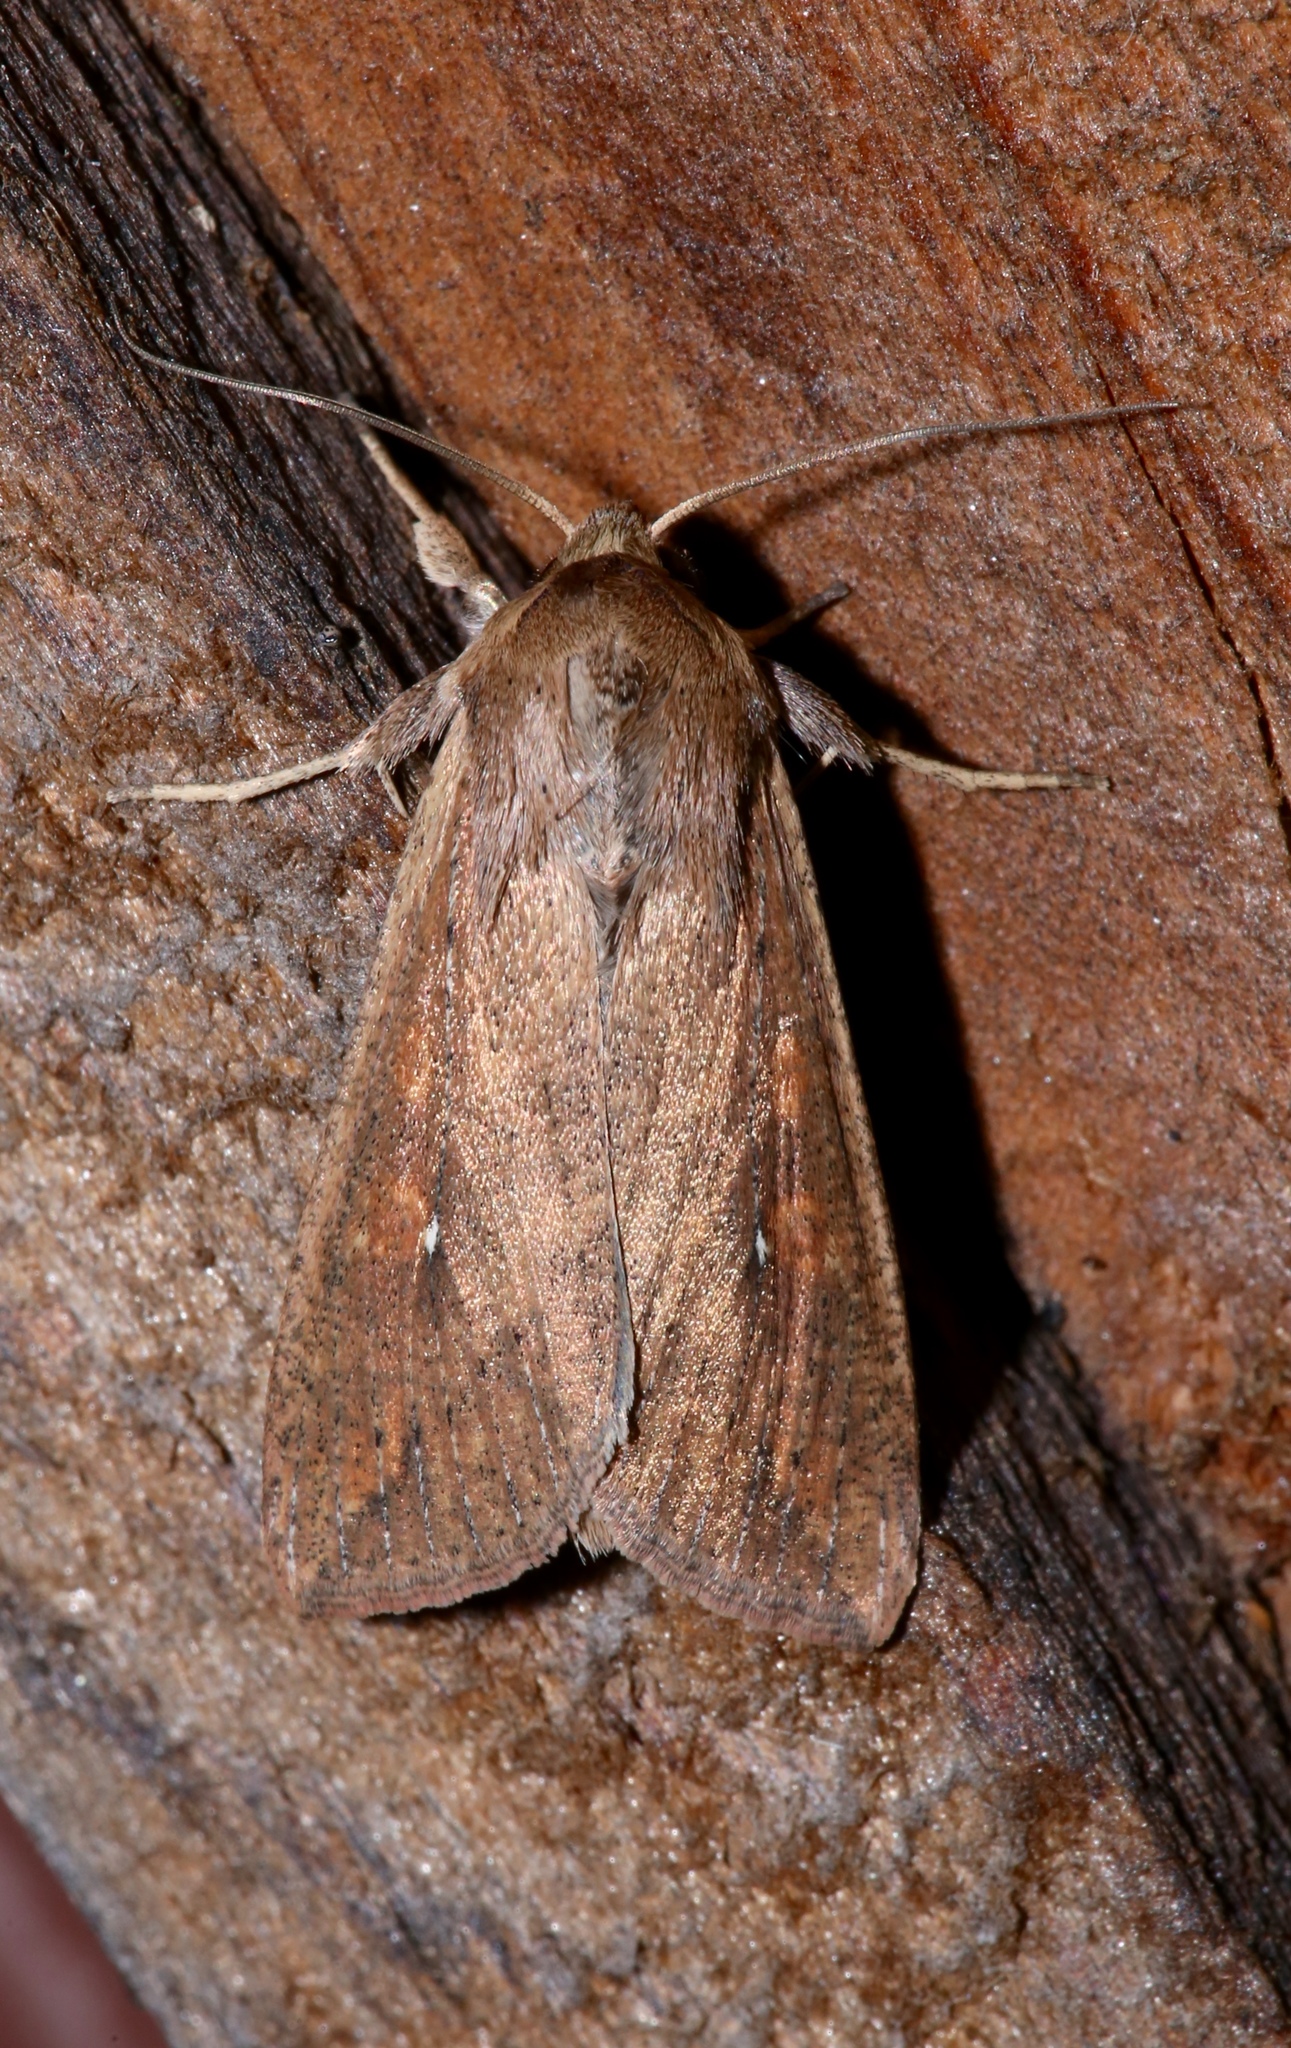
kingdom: Animalia
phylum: Arthropoda
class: Insecta
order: Lepidoptera
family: Noctuidae
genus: Mythimna
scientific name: Mythimna unipuncta
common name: White-speck
